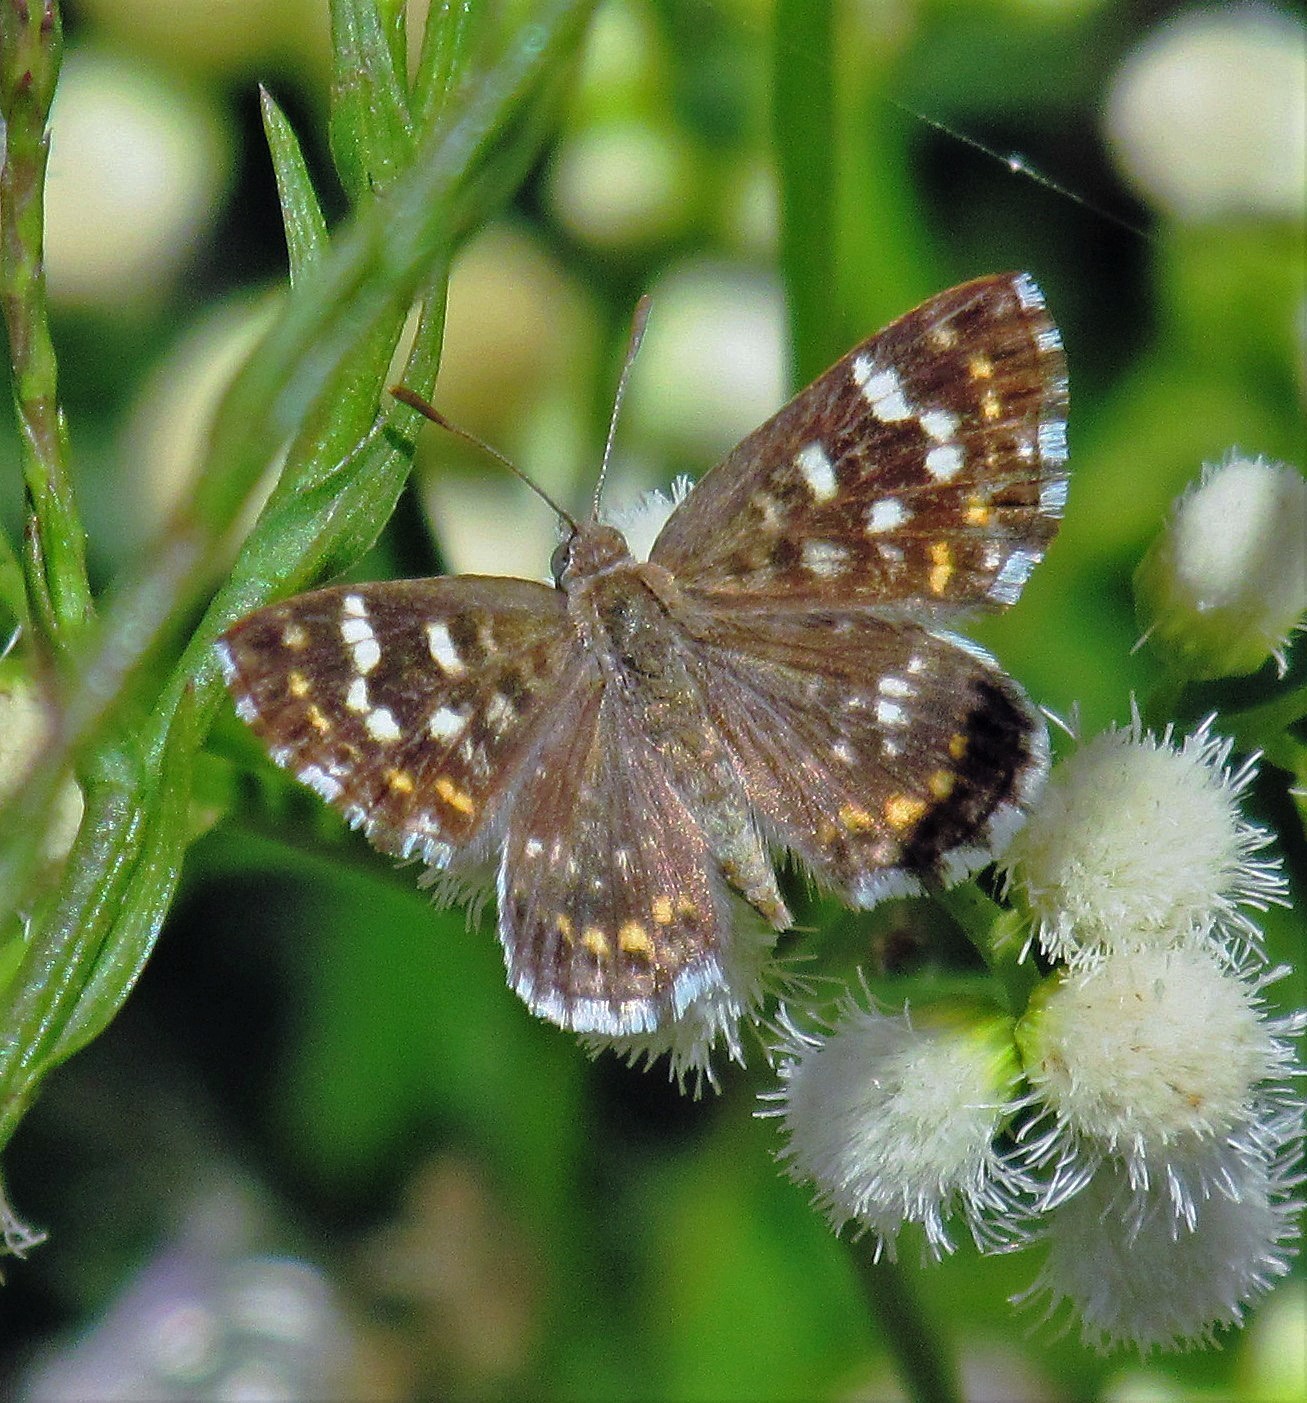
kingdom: Animalia
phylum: Arthropoda
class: Insecta
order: Lepidoptera
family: Lycaenidae
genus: Aricoris
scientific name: Aricoris signata
